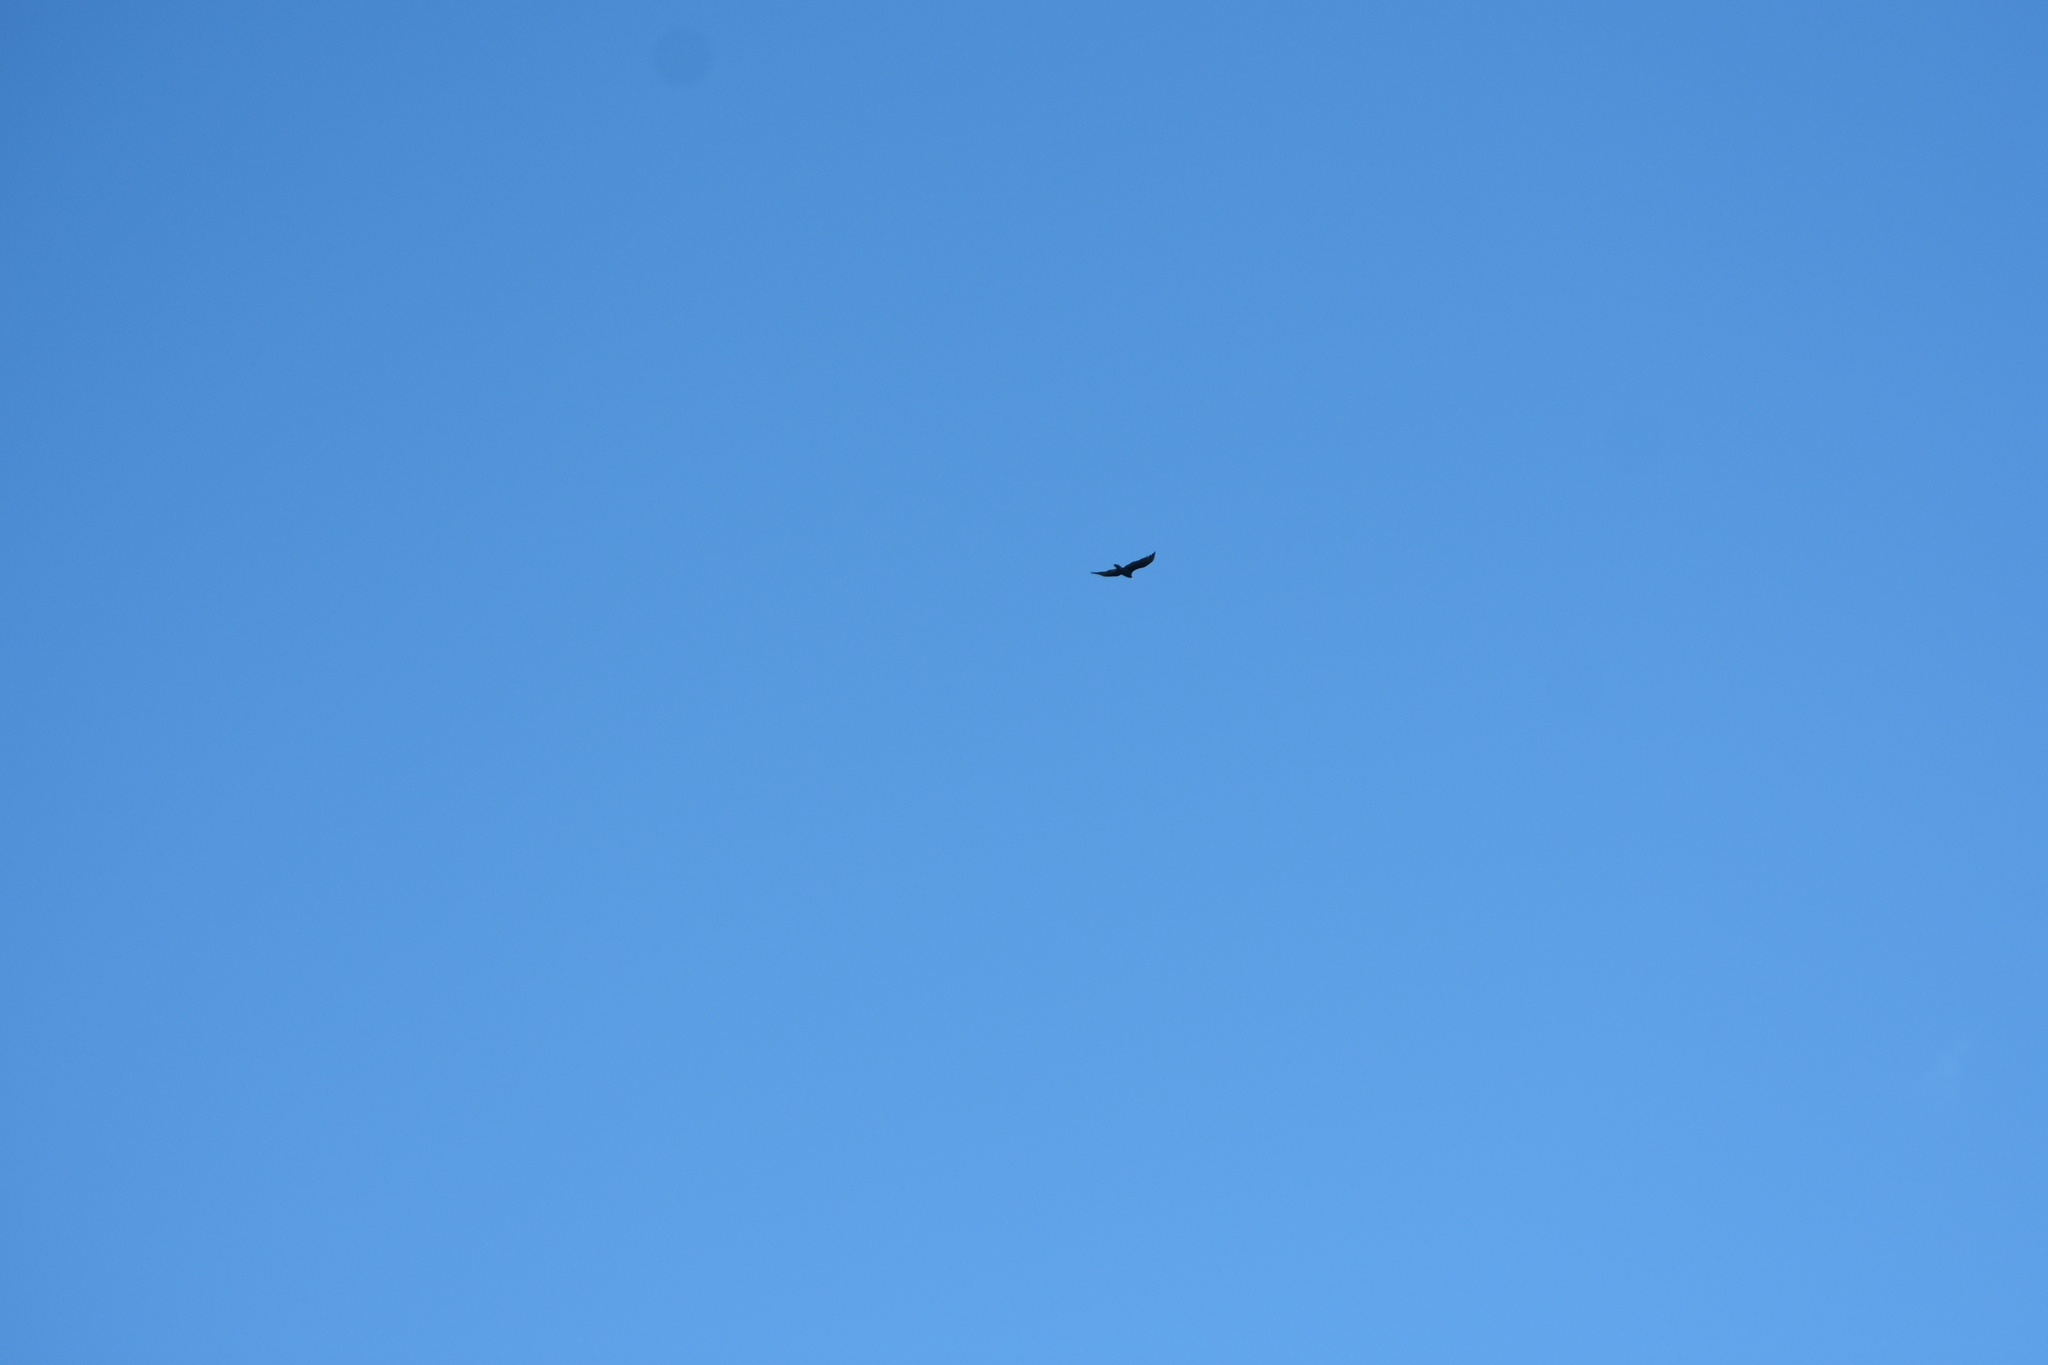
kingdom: Animalia
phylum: Chordata
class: Aves
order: Accipitriformes
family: Cathartidae
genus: Cathartes
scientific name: Cathartes aura
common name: Turkey vulture
